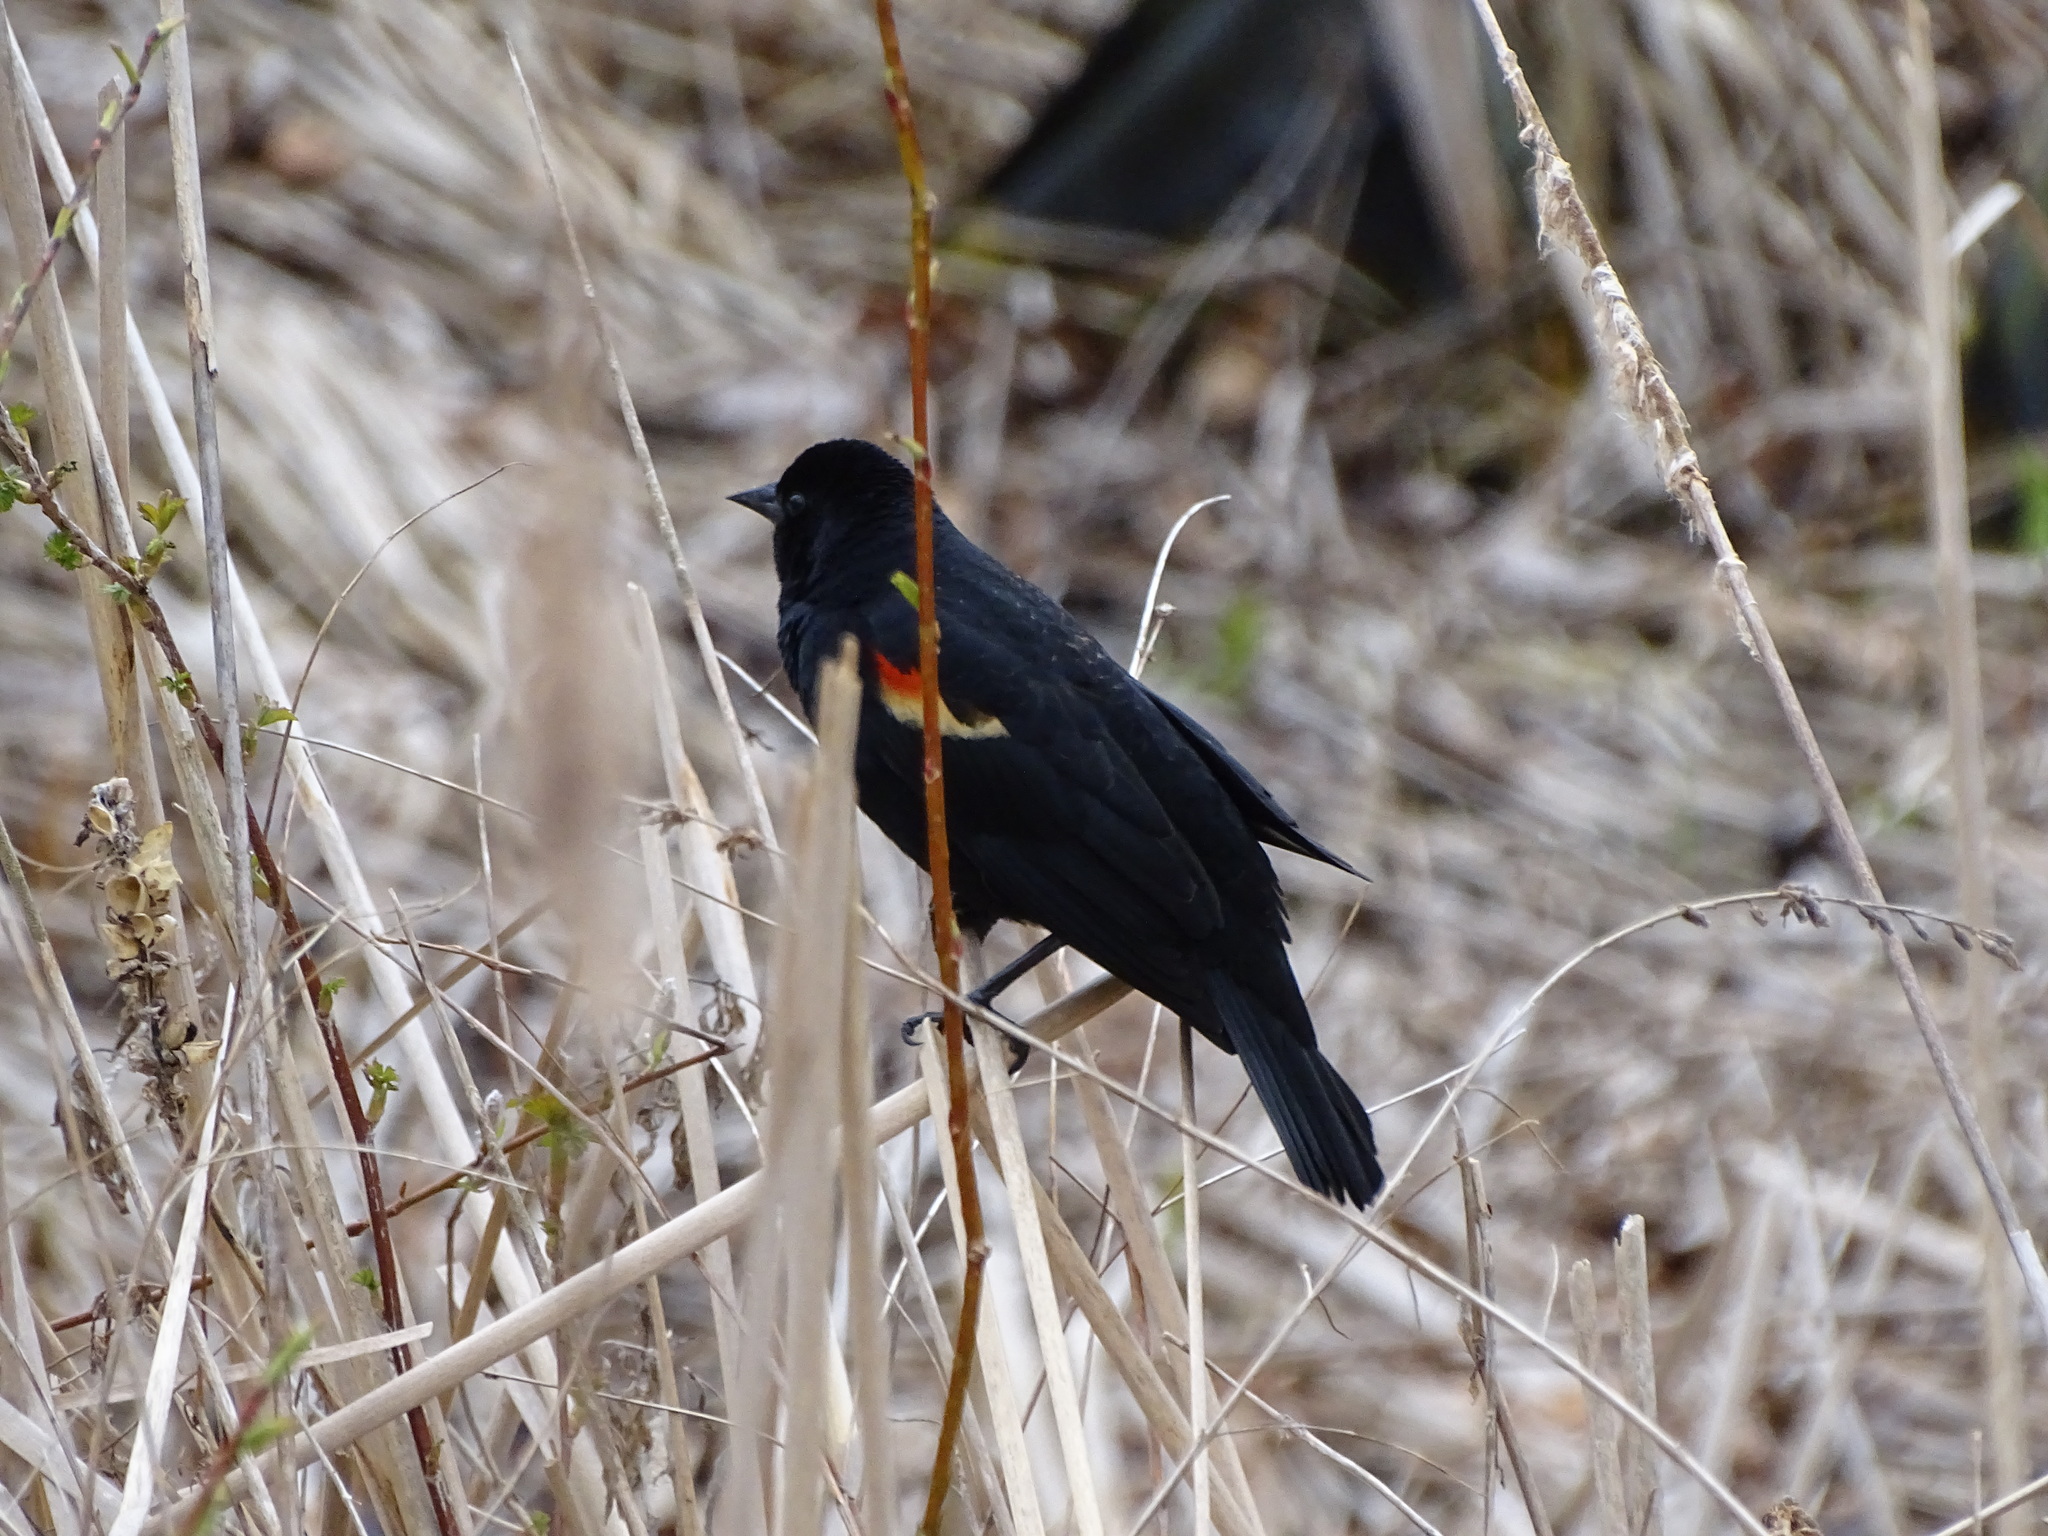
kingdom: Animalia
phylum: Chordata
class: Aves
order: Passeriformes
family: Icteridae
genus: Agelaius
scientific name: Agelaius phoeniceus
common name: Red-winged blackbird
